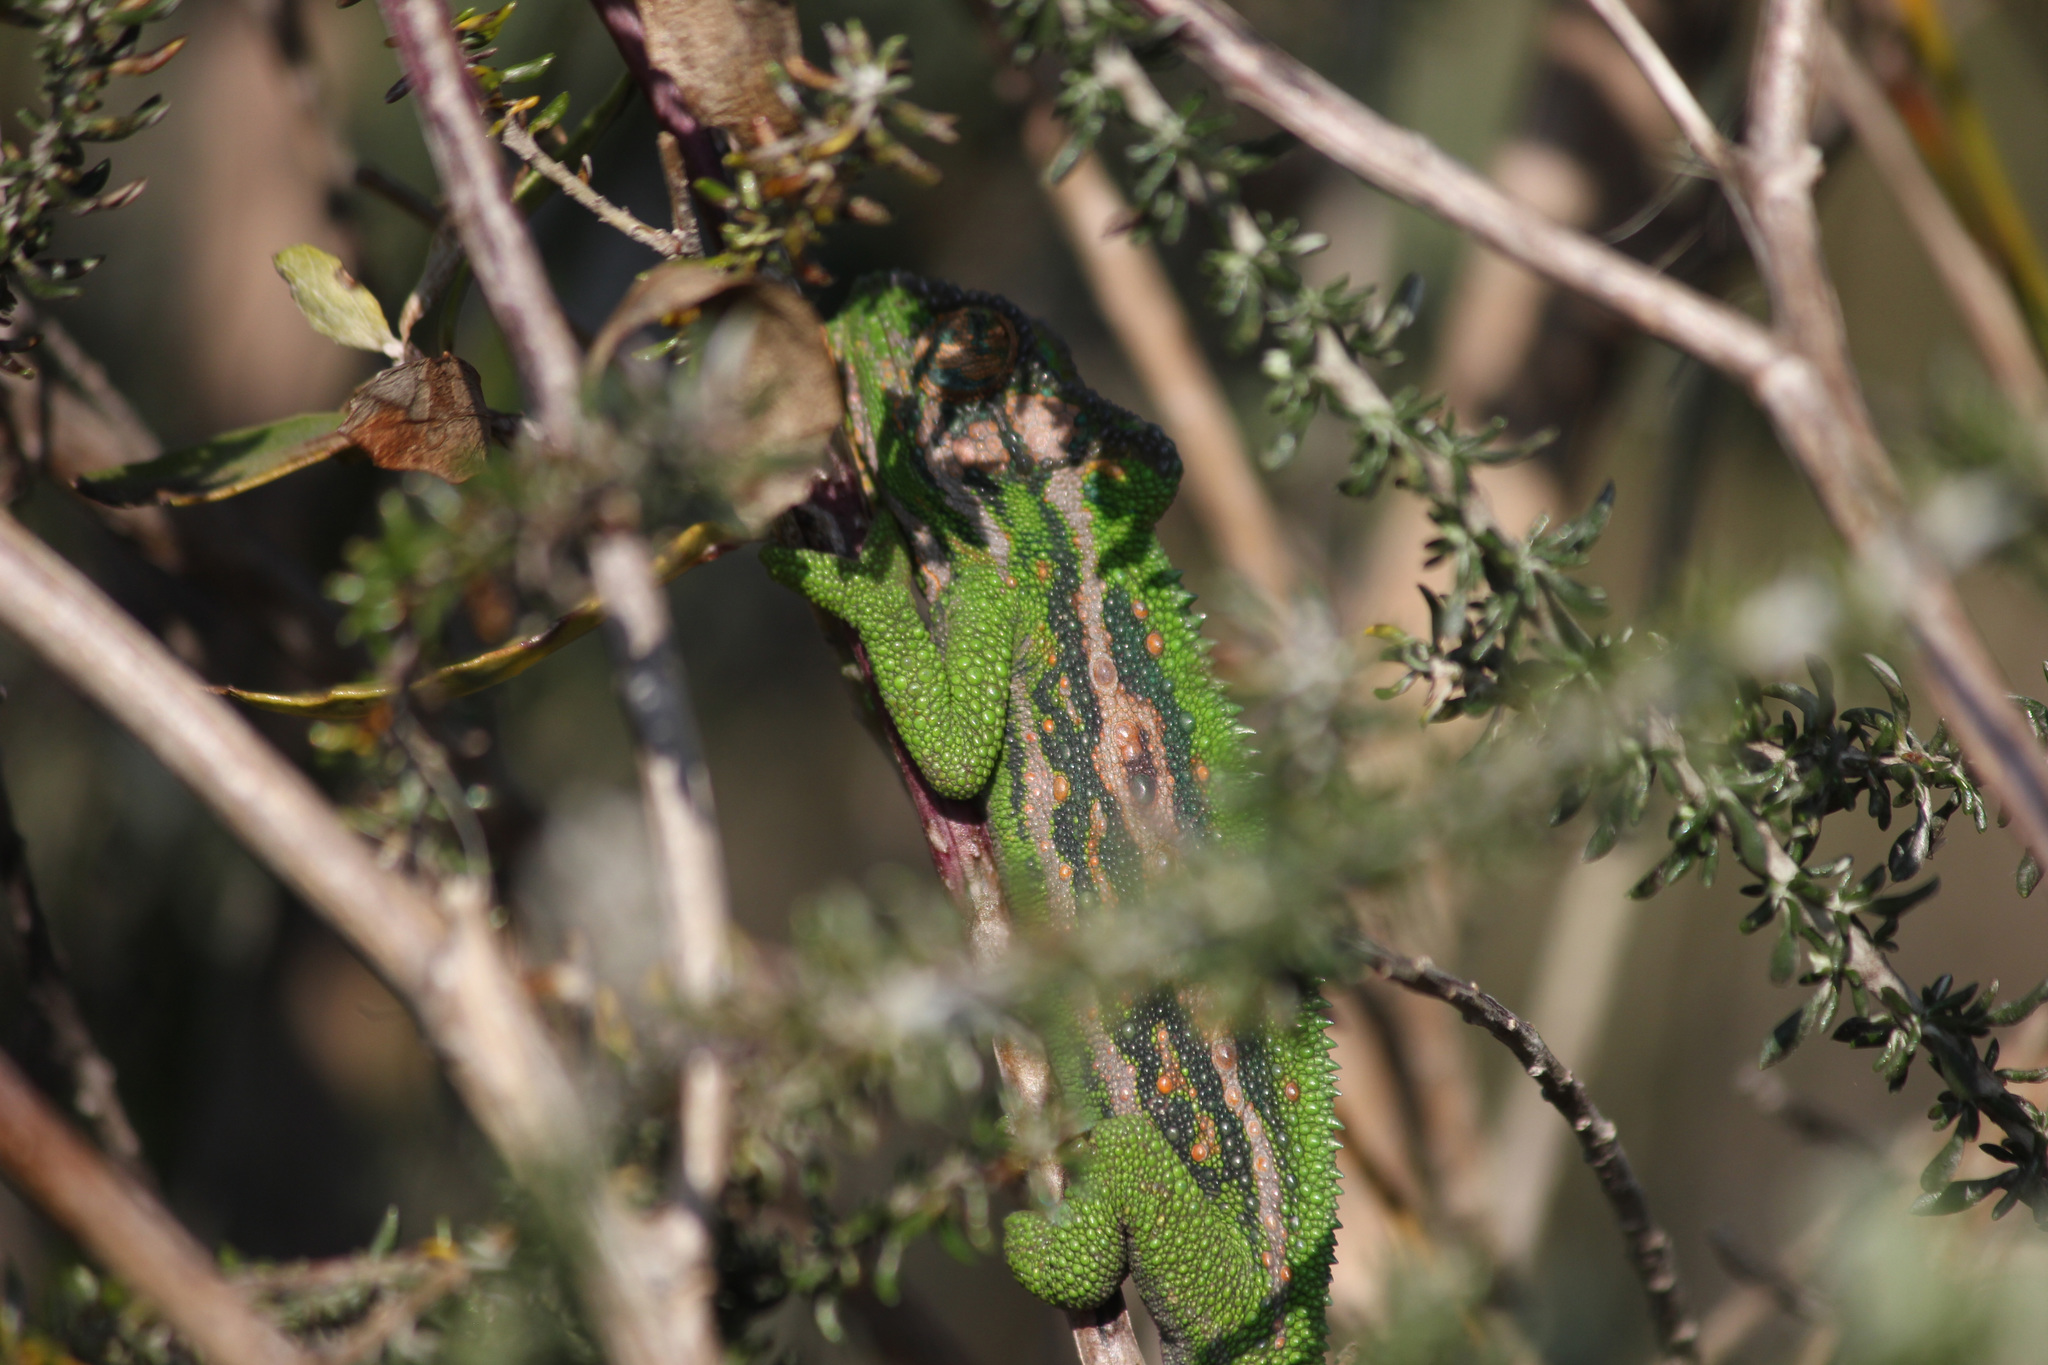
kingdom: Animalia
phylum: Chordata
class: Squamata
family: Chamaeleonidae
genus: Bradypodion
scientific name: Bradypodion pumilum
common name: Cape dwarf chameleon
